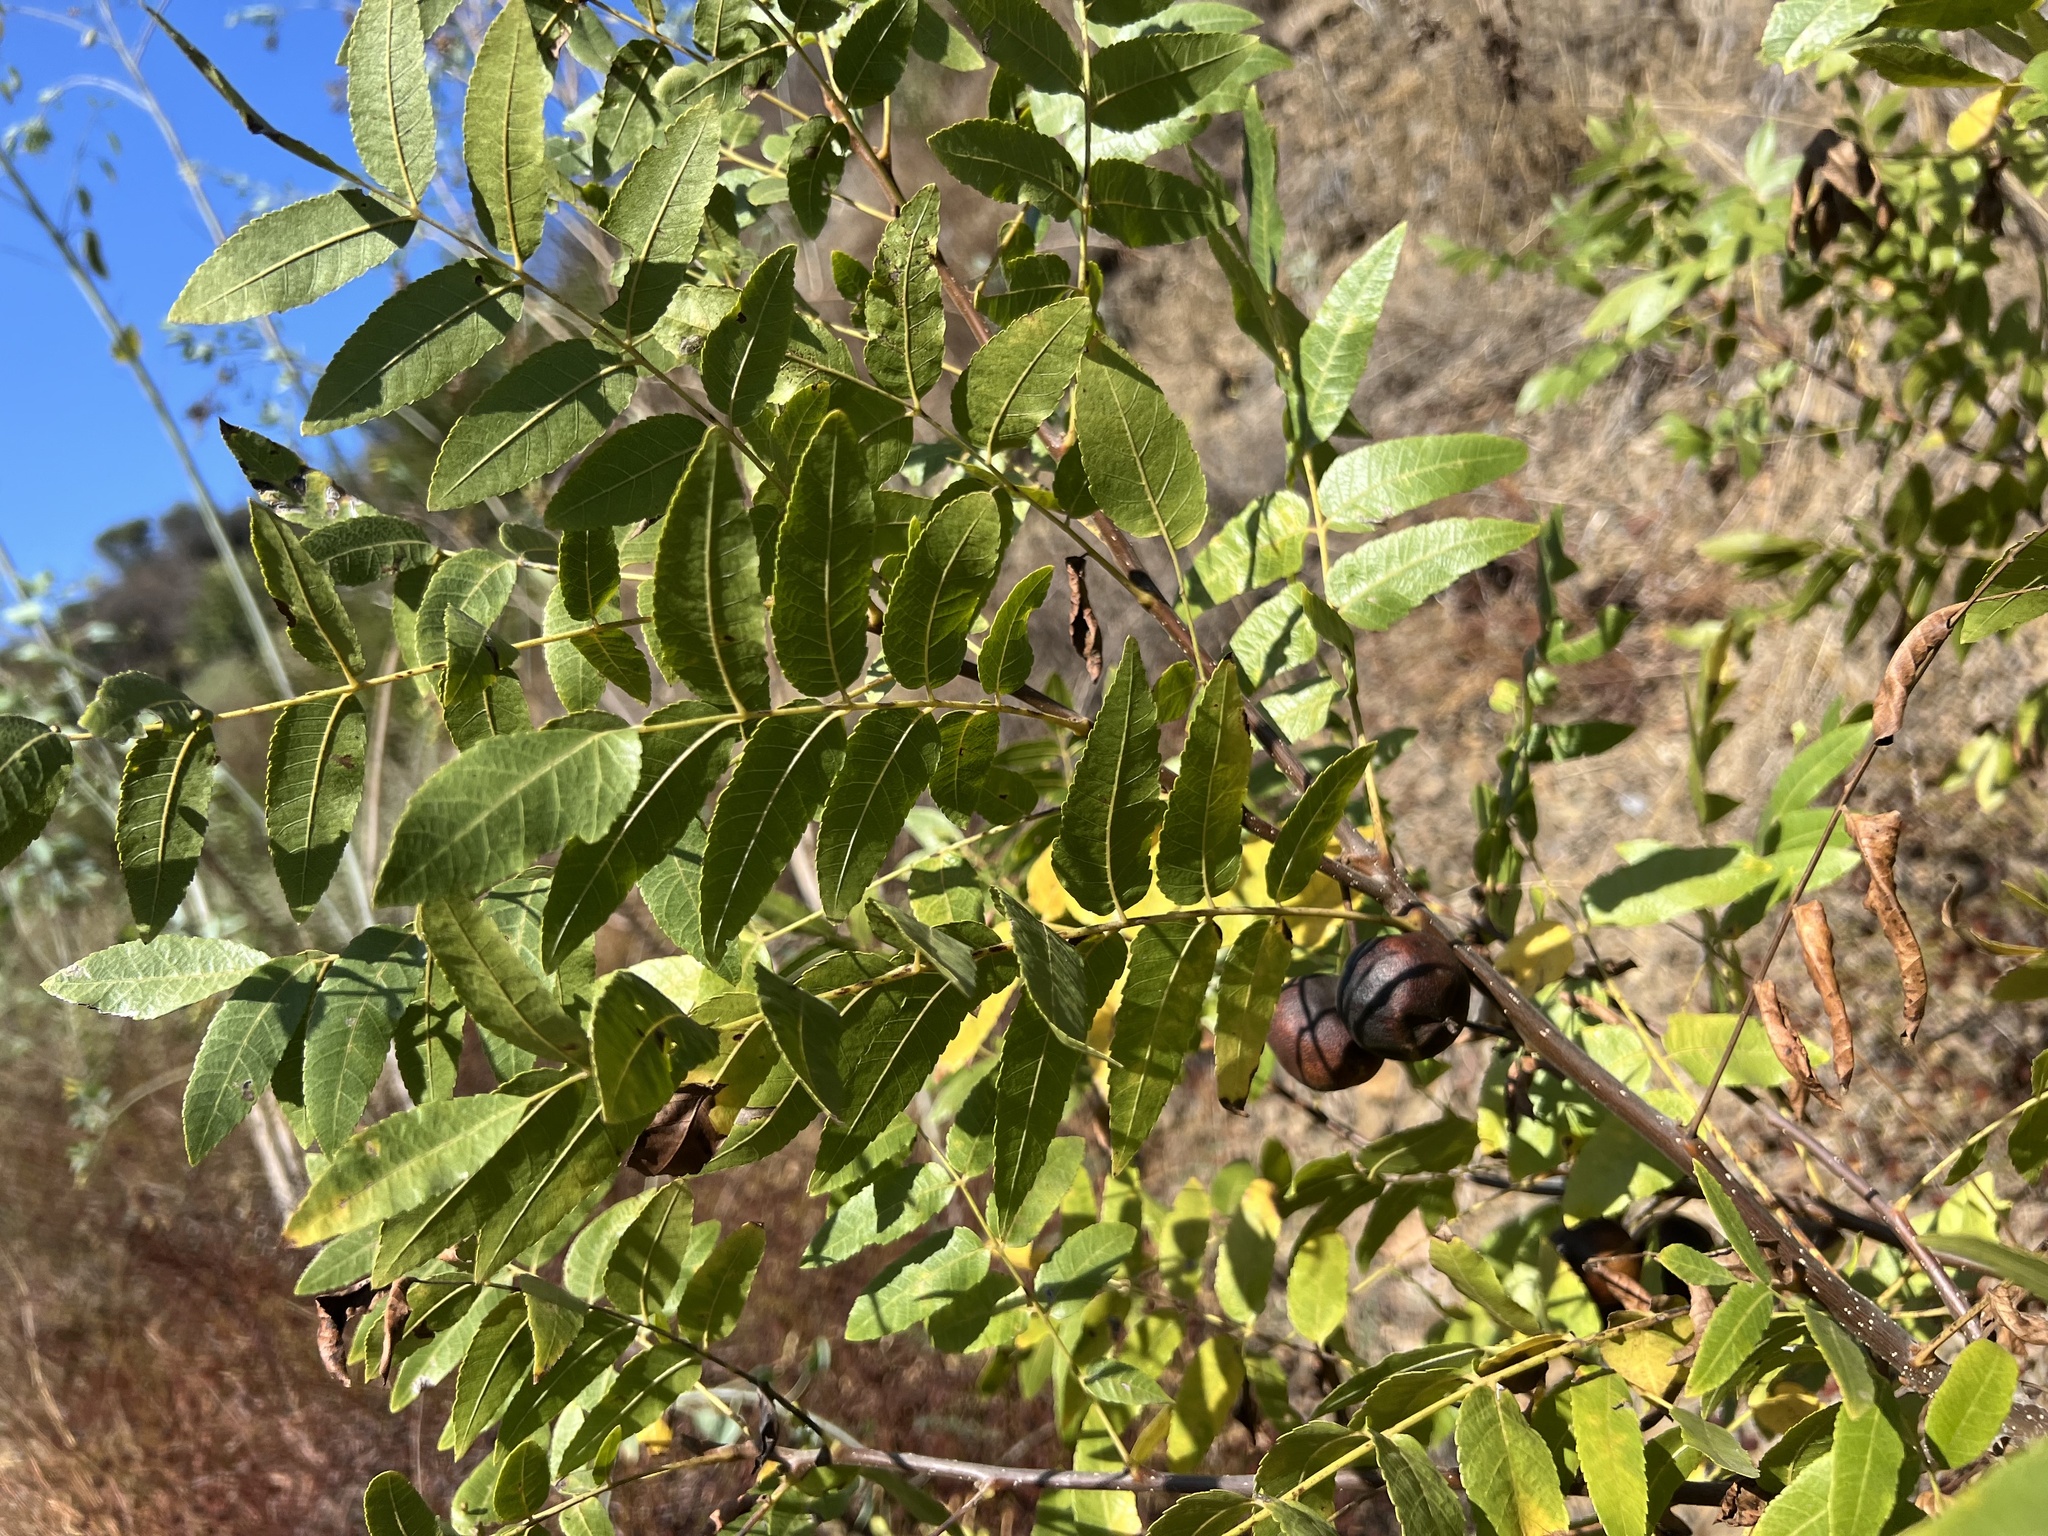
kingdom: Plantae
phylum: Tracheophyta
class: Magnoliopsida
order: Fagales
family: Juglandaceae
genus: Juglans
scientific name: Juglans californica
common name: Southern california black walnut
